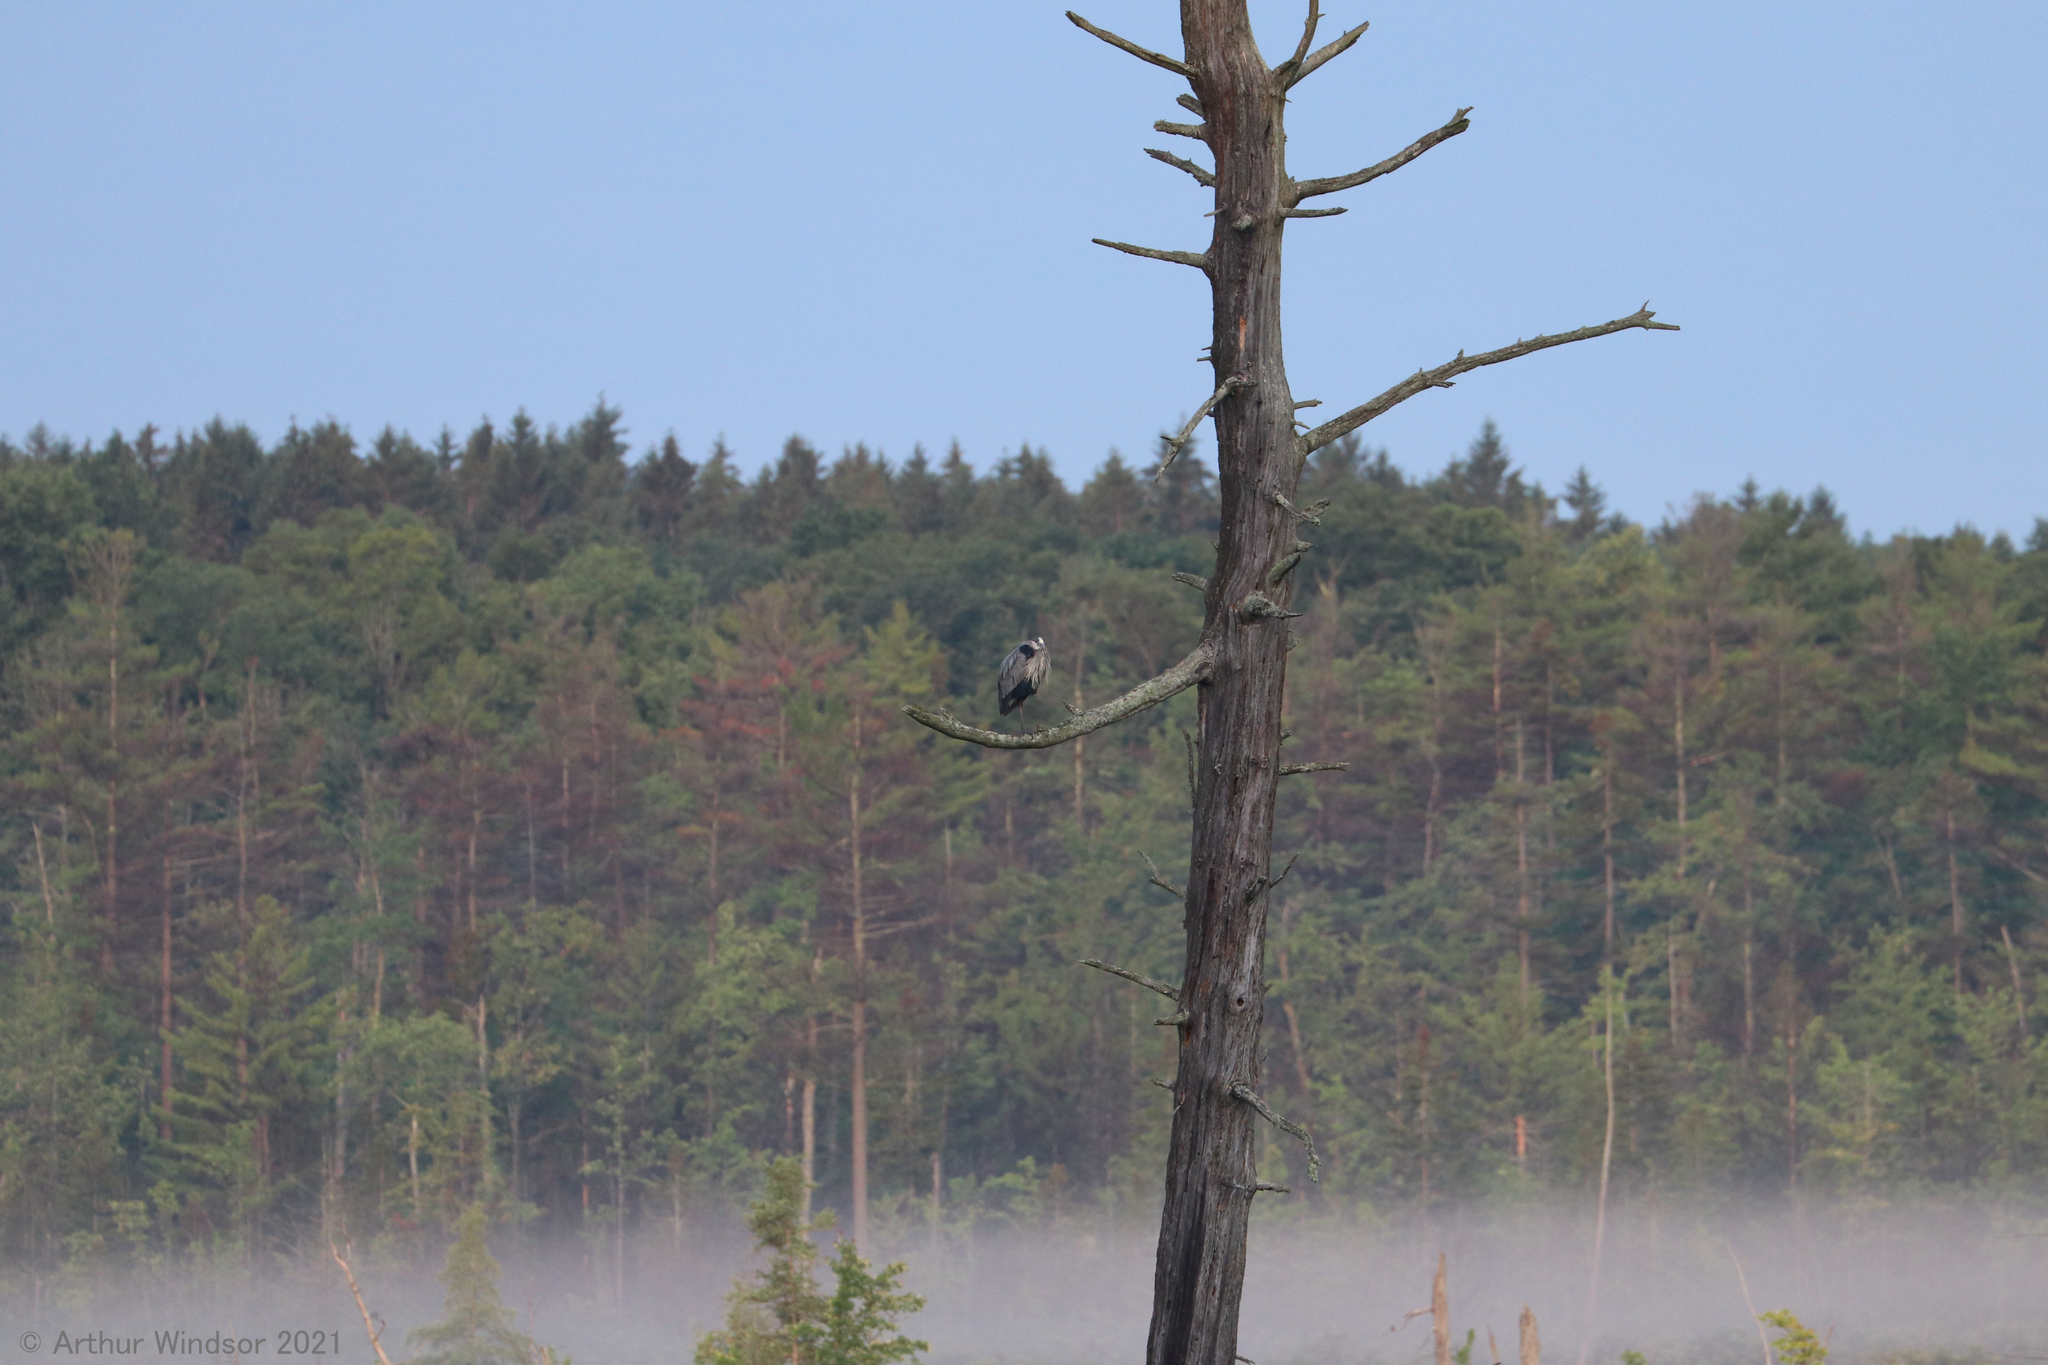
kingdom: Animalia
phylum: Chordata
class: Aves
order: Pelecaniformes
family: Ardeidae
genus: Ardea
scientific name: Ardea herodias
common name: Great blue heron
